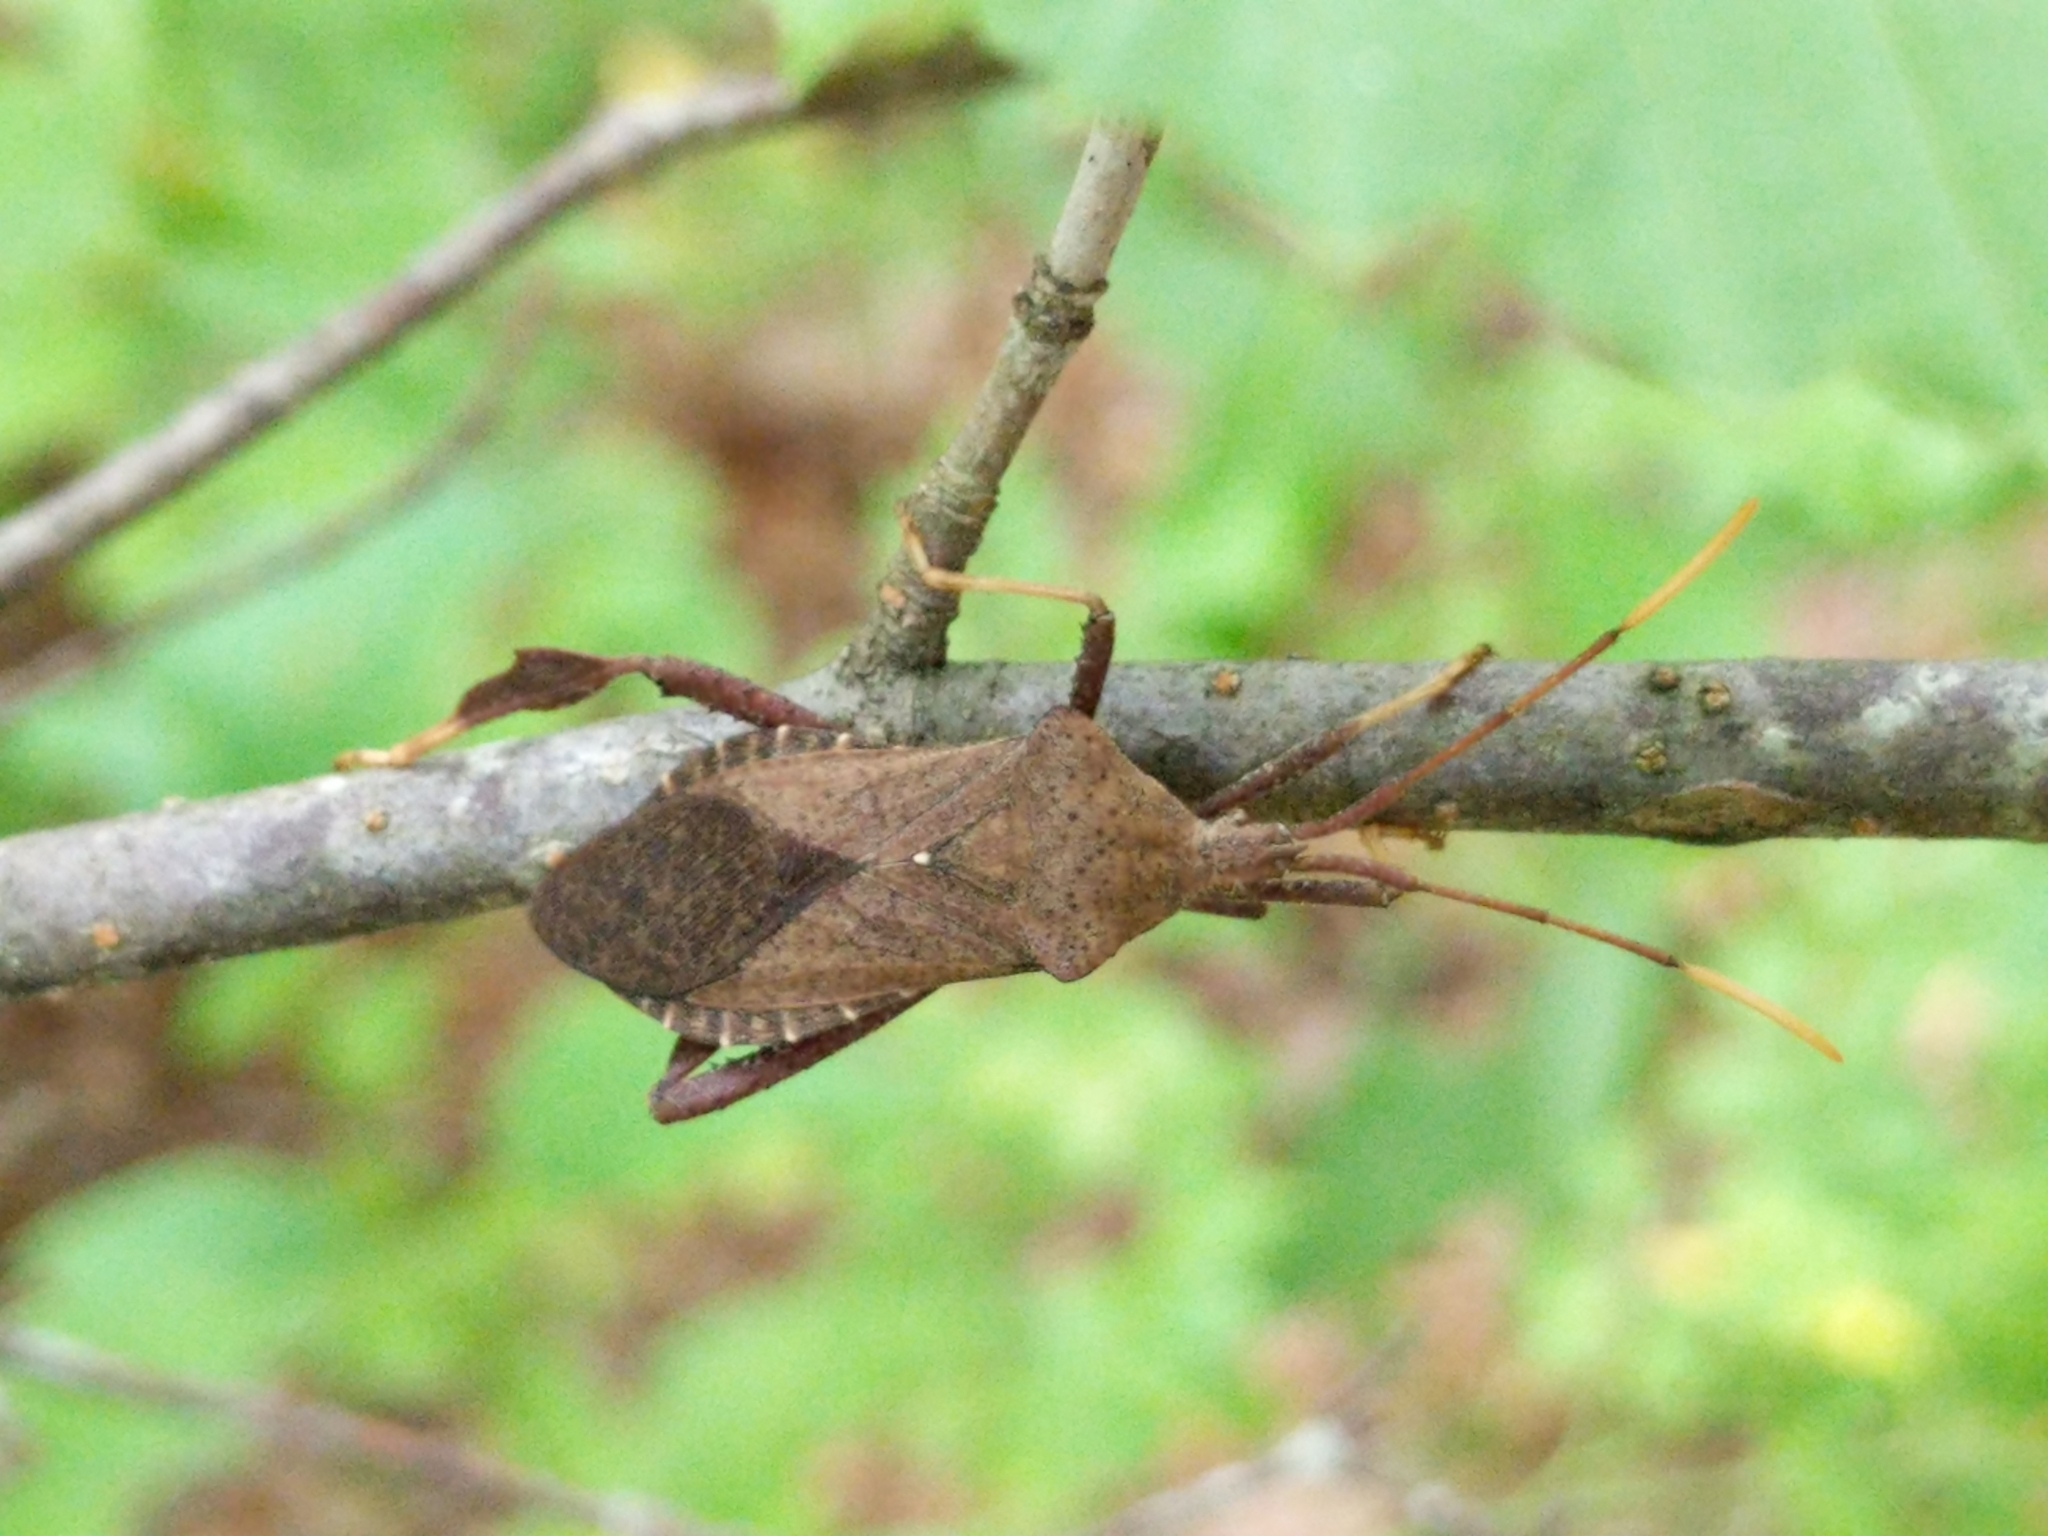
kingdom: Animalia
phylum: Arthropoda
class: Insecta
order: Hemiptera
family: Coreidae
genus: Acanthocephala
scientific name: Acanthocephala terminalis
